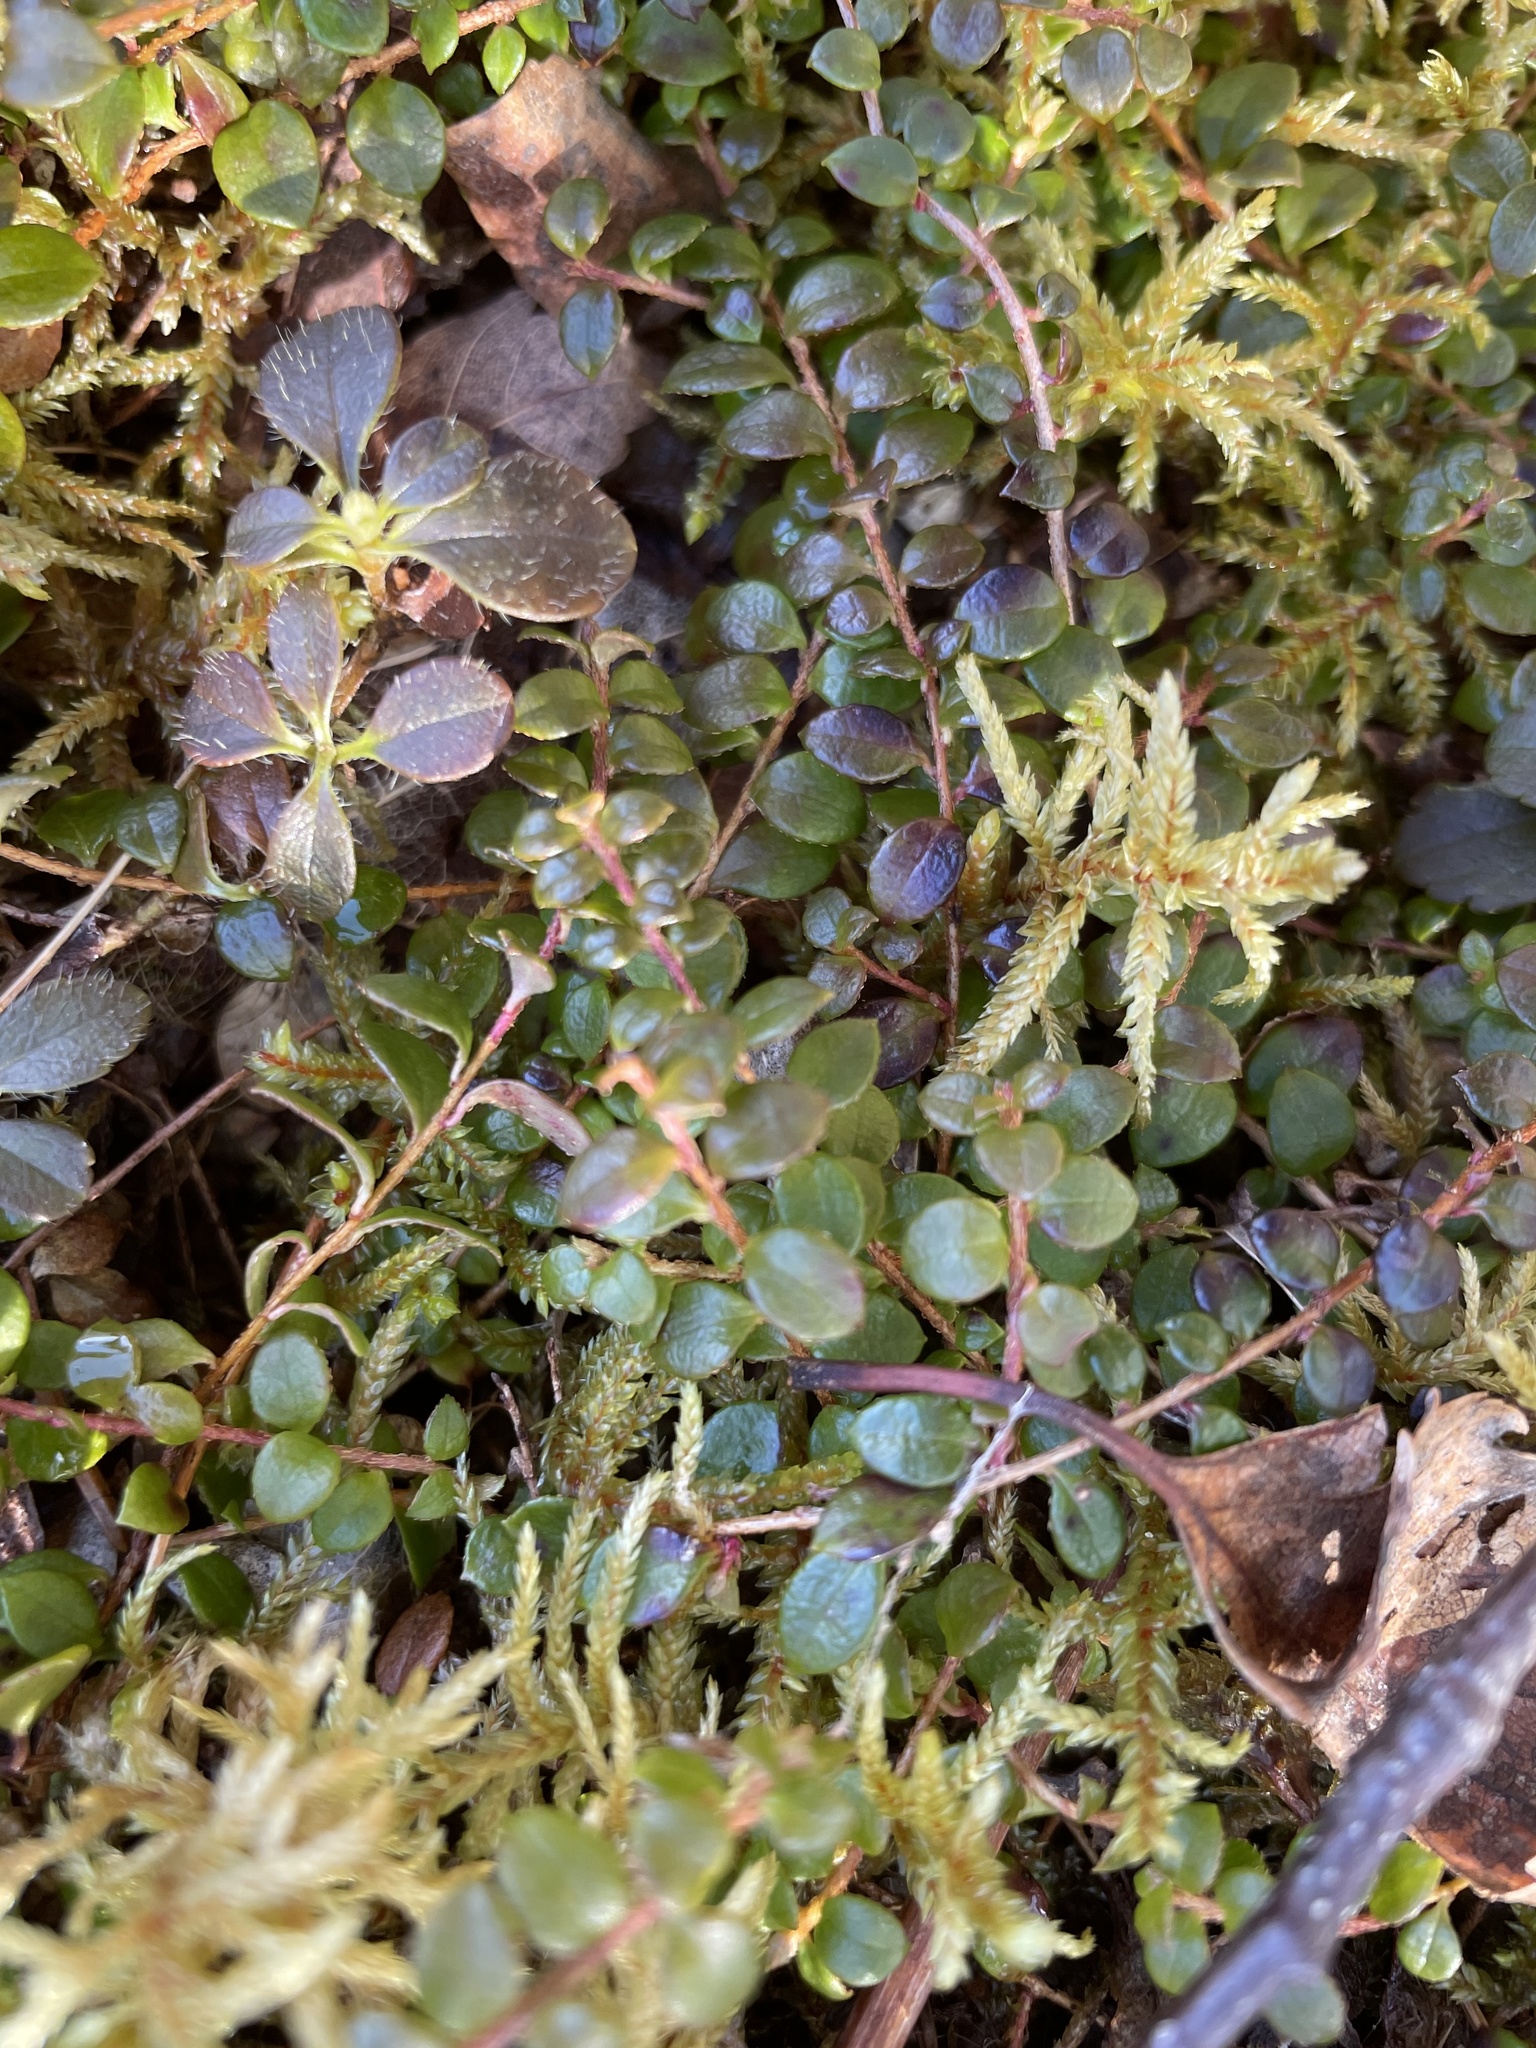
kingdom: Plantae
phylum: Tracheophyta
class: Magnoliopsida
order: Ericales
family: Ericaceae
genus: Gaultheria
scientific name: Gaultheria hispidula
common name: Cancer wintergreen
